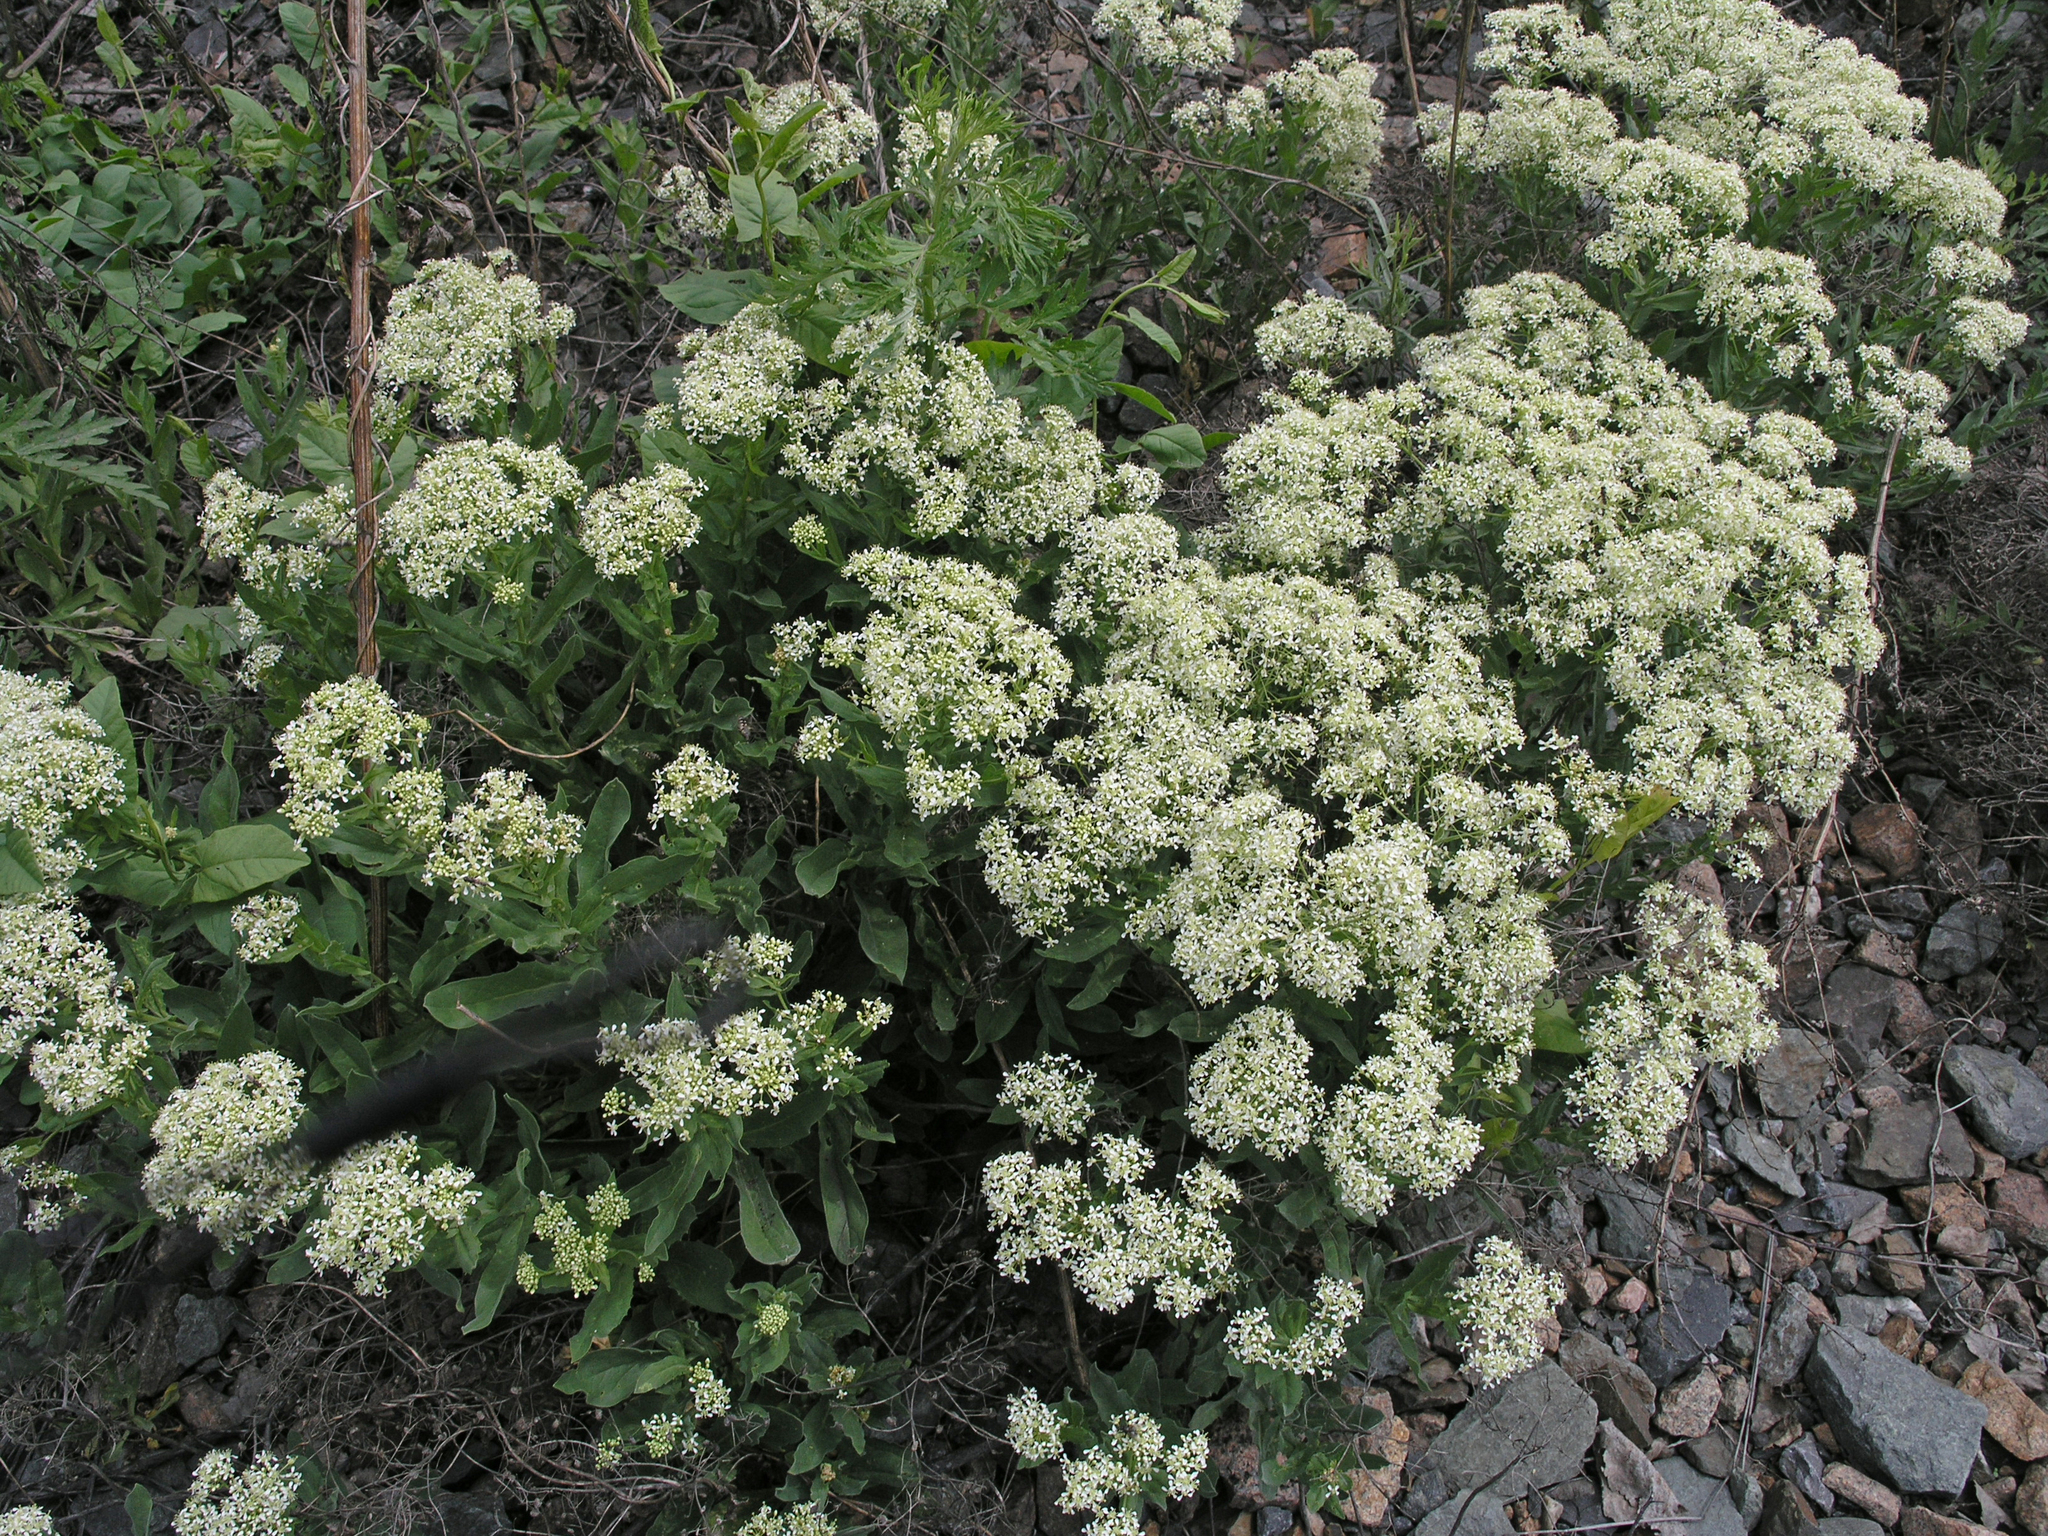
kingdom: Plantae
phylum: Tracheophyta
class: Magnoliopsida
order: Brassicales
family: Brassicaceae
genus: Lepidium
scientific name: Lepidium draba
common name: Hoary cress
